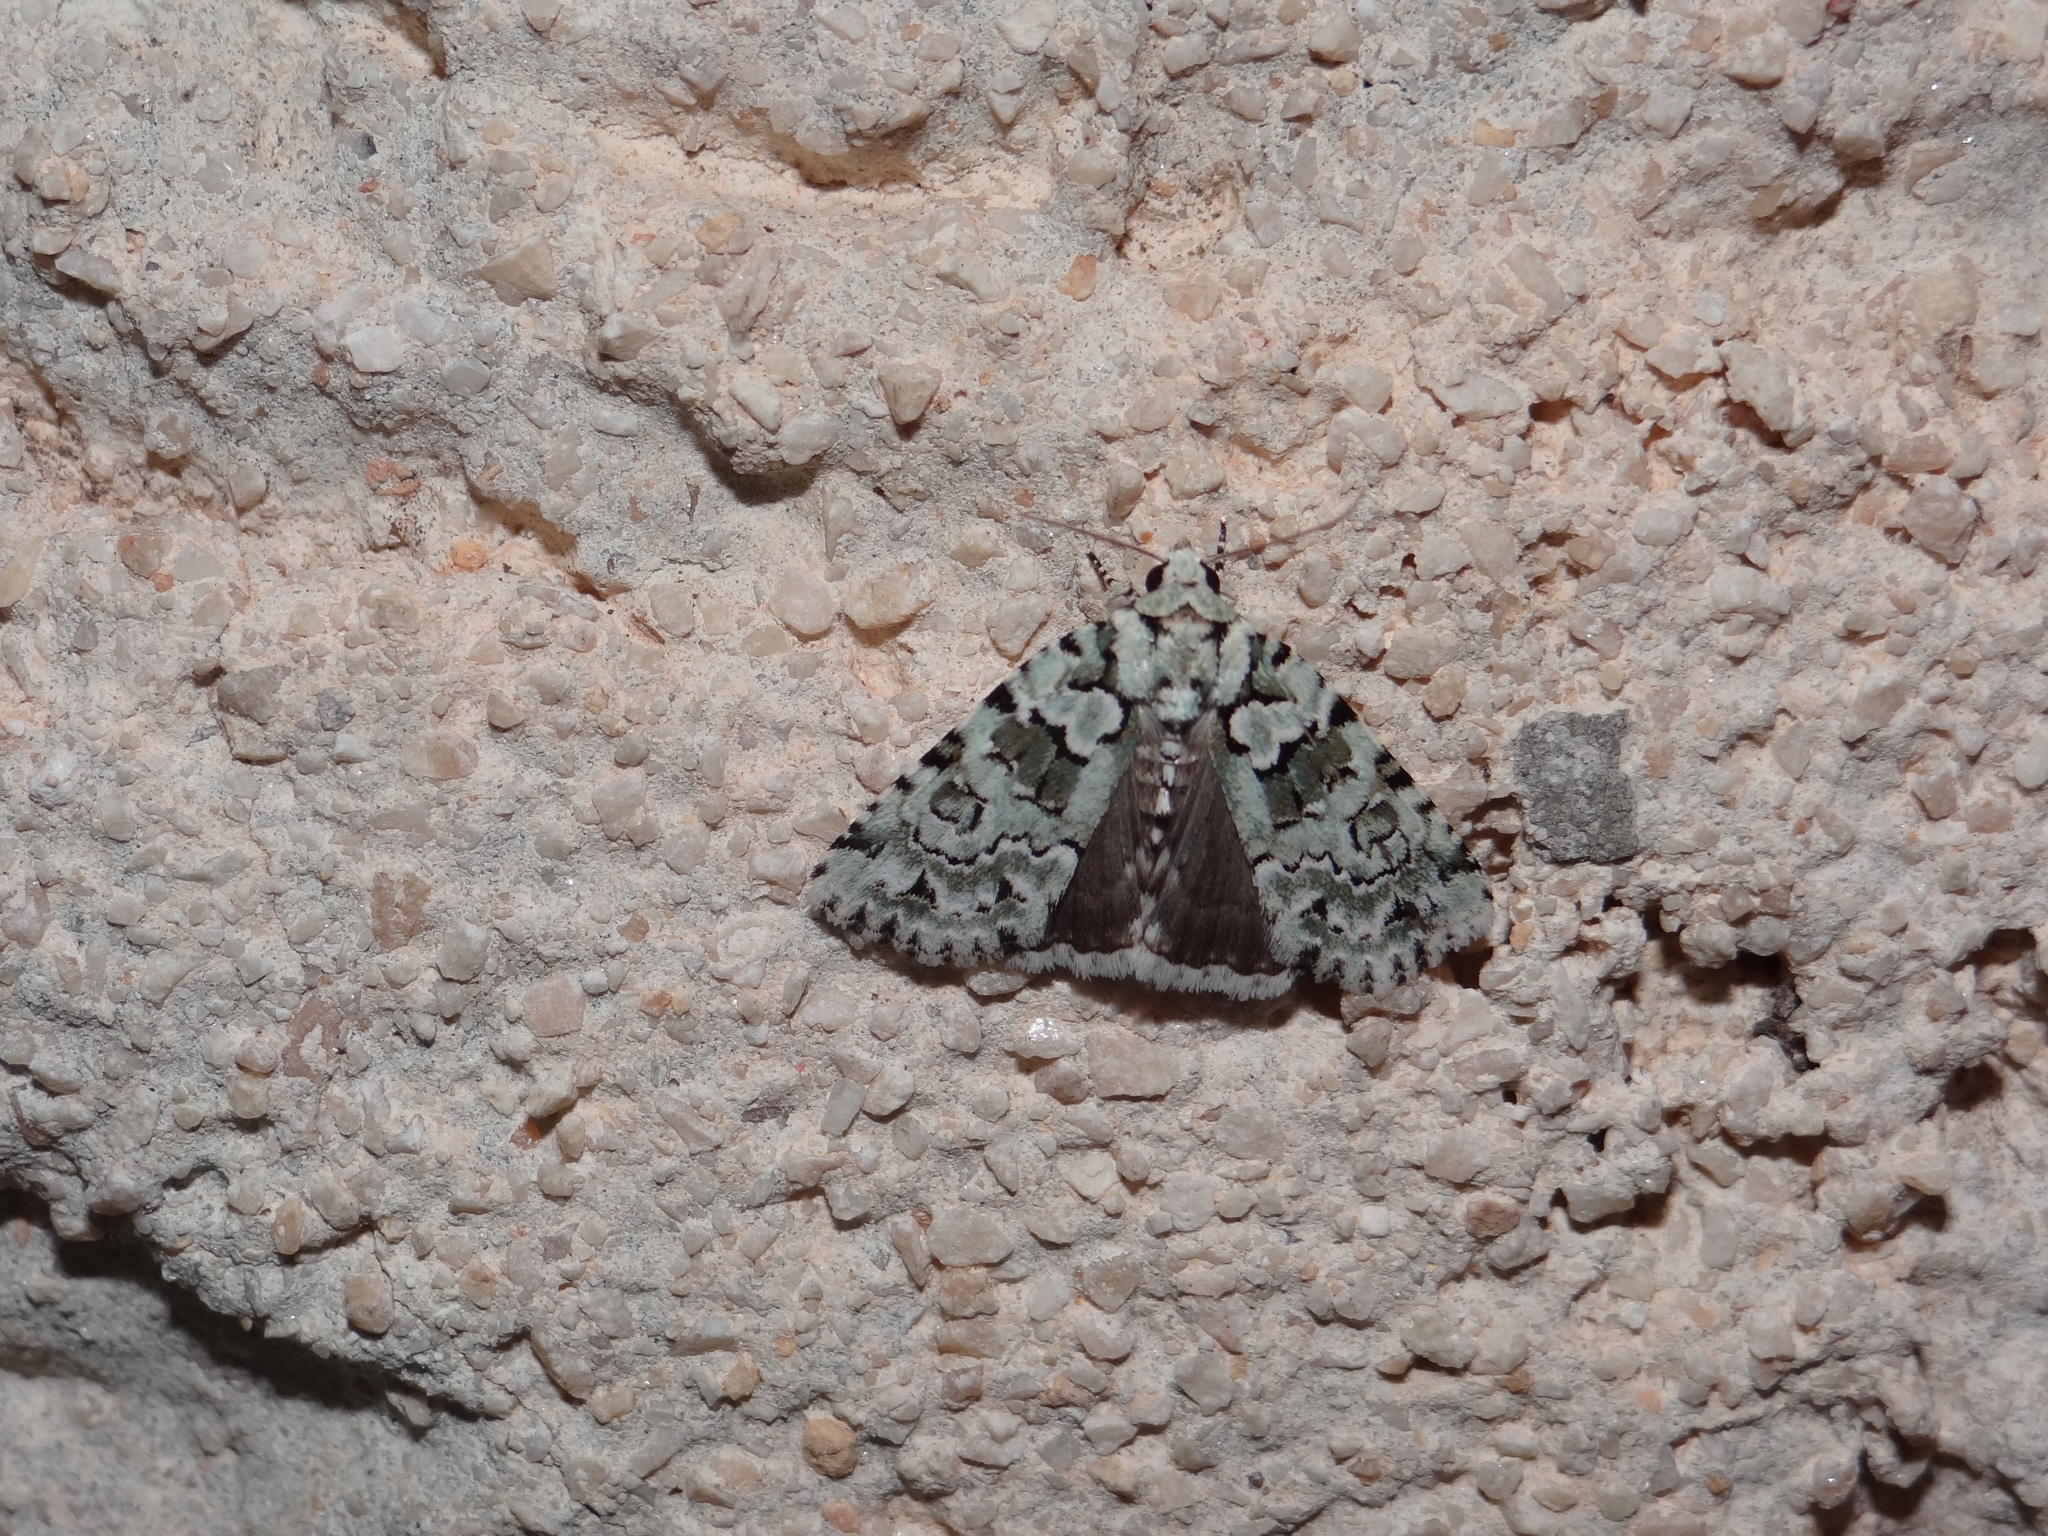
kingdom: Animalia
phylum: Arthropoda
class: Insecta
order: Lepidoptera
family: Noctuidae
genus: Nyctobrya
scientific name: Nyctobrya muralis
